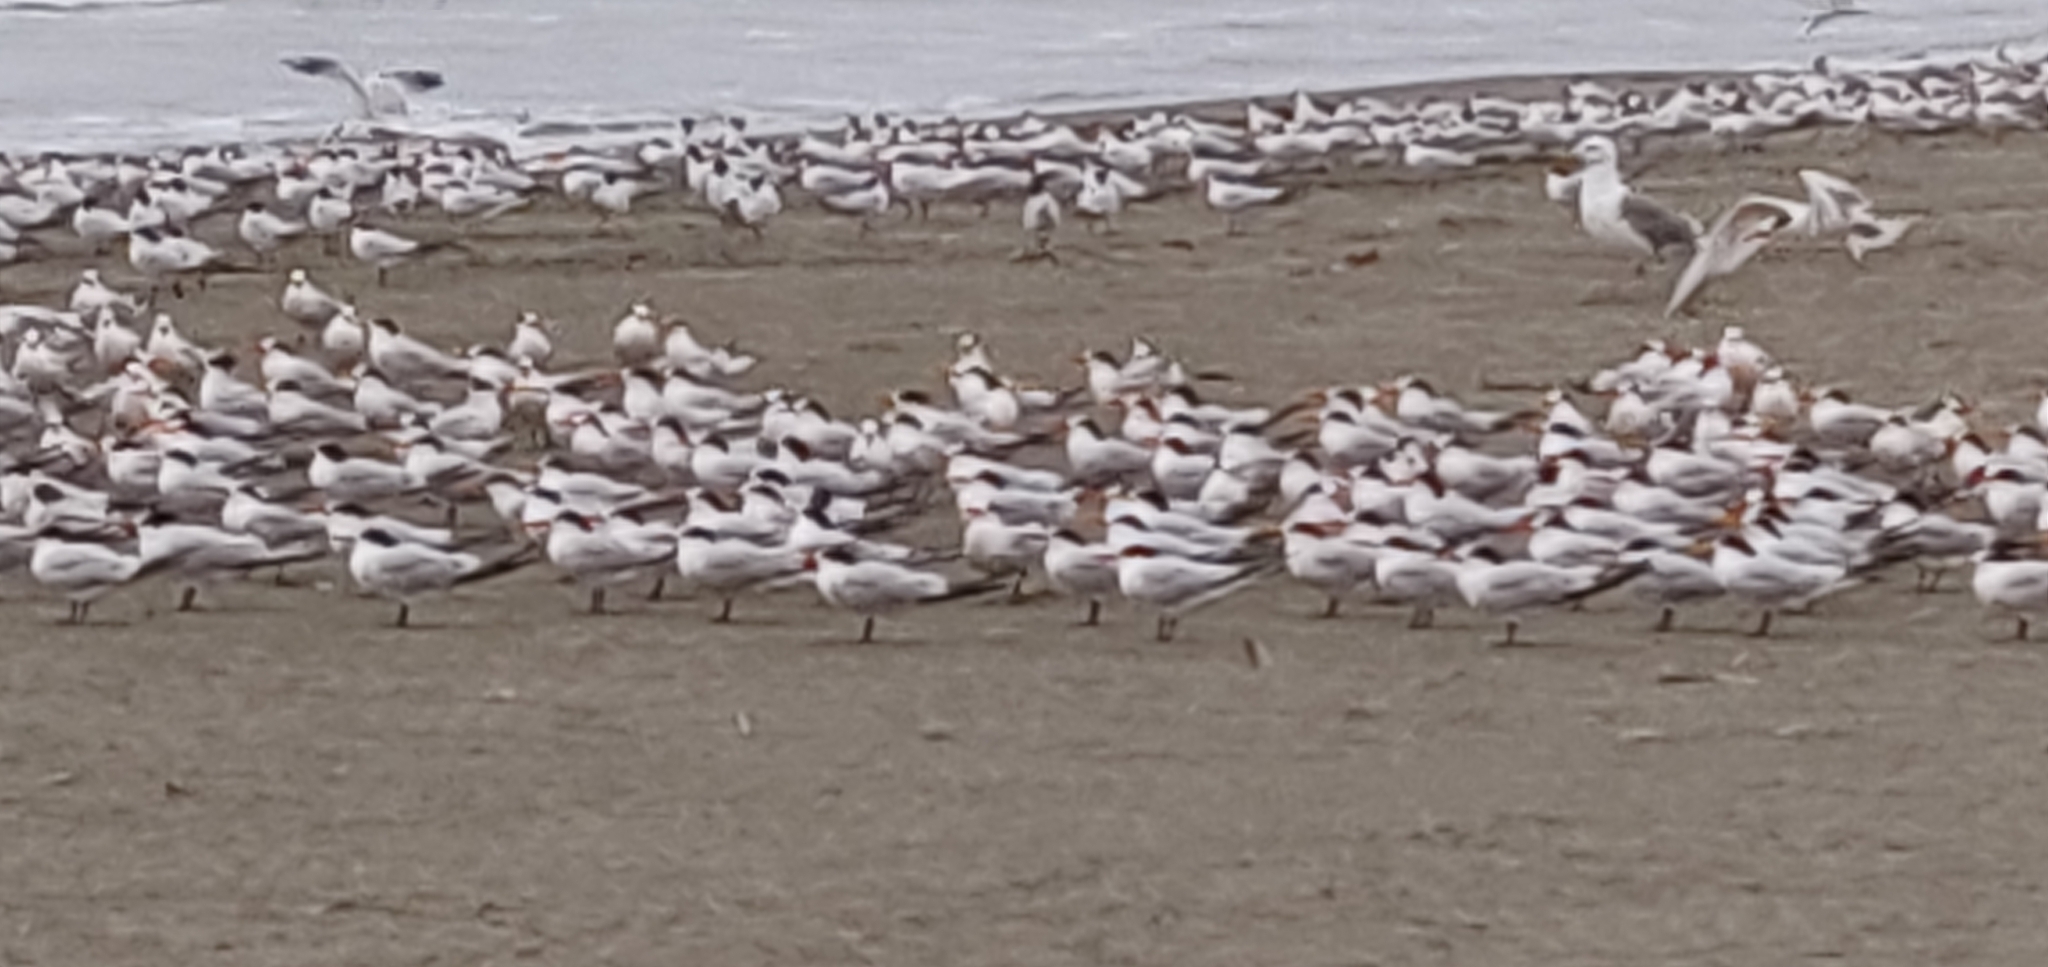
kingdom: Animalia
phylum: Chordata
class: Aves
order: Charadriiformes
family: Laridae
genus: Thalasseus
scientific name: Thalasseus elegans
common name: Elegant tern
